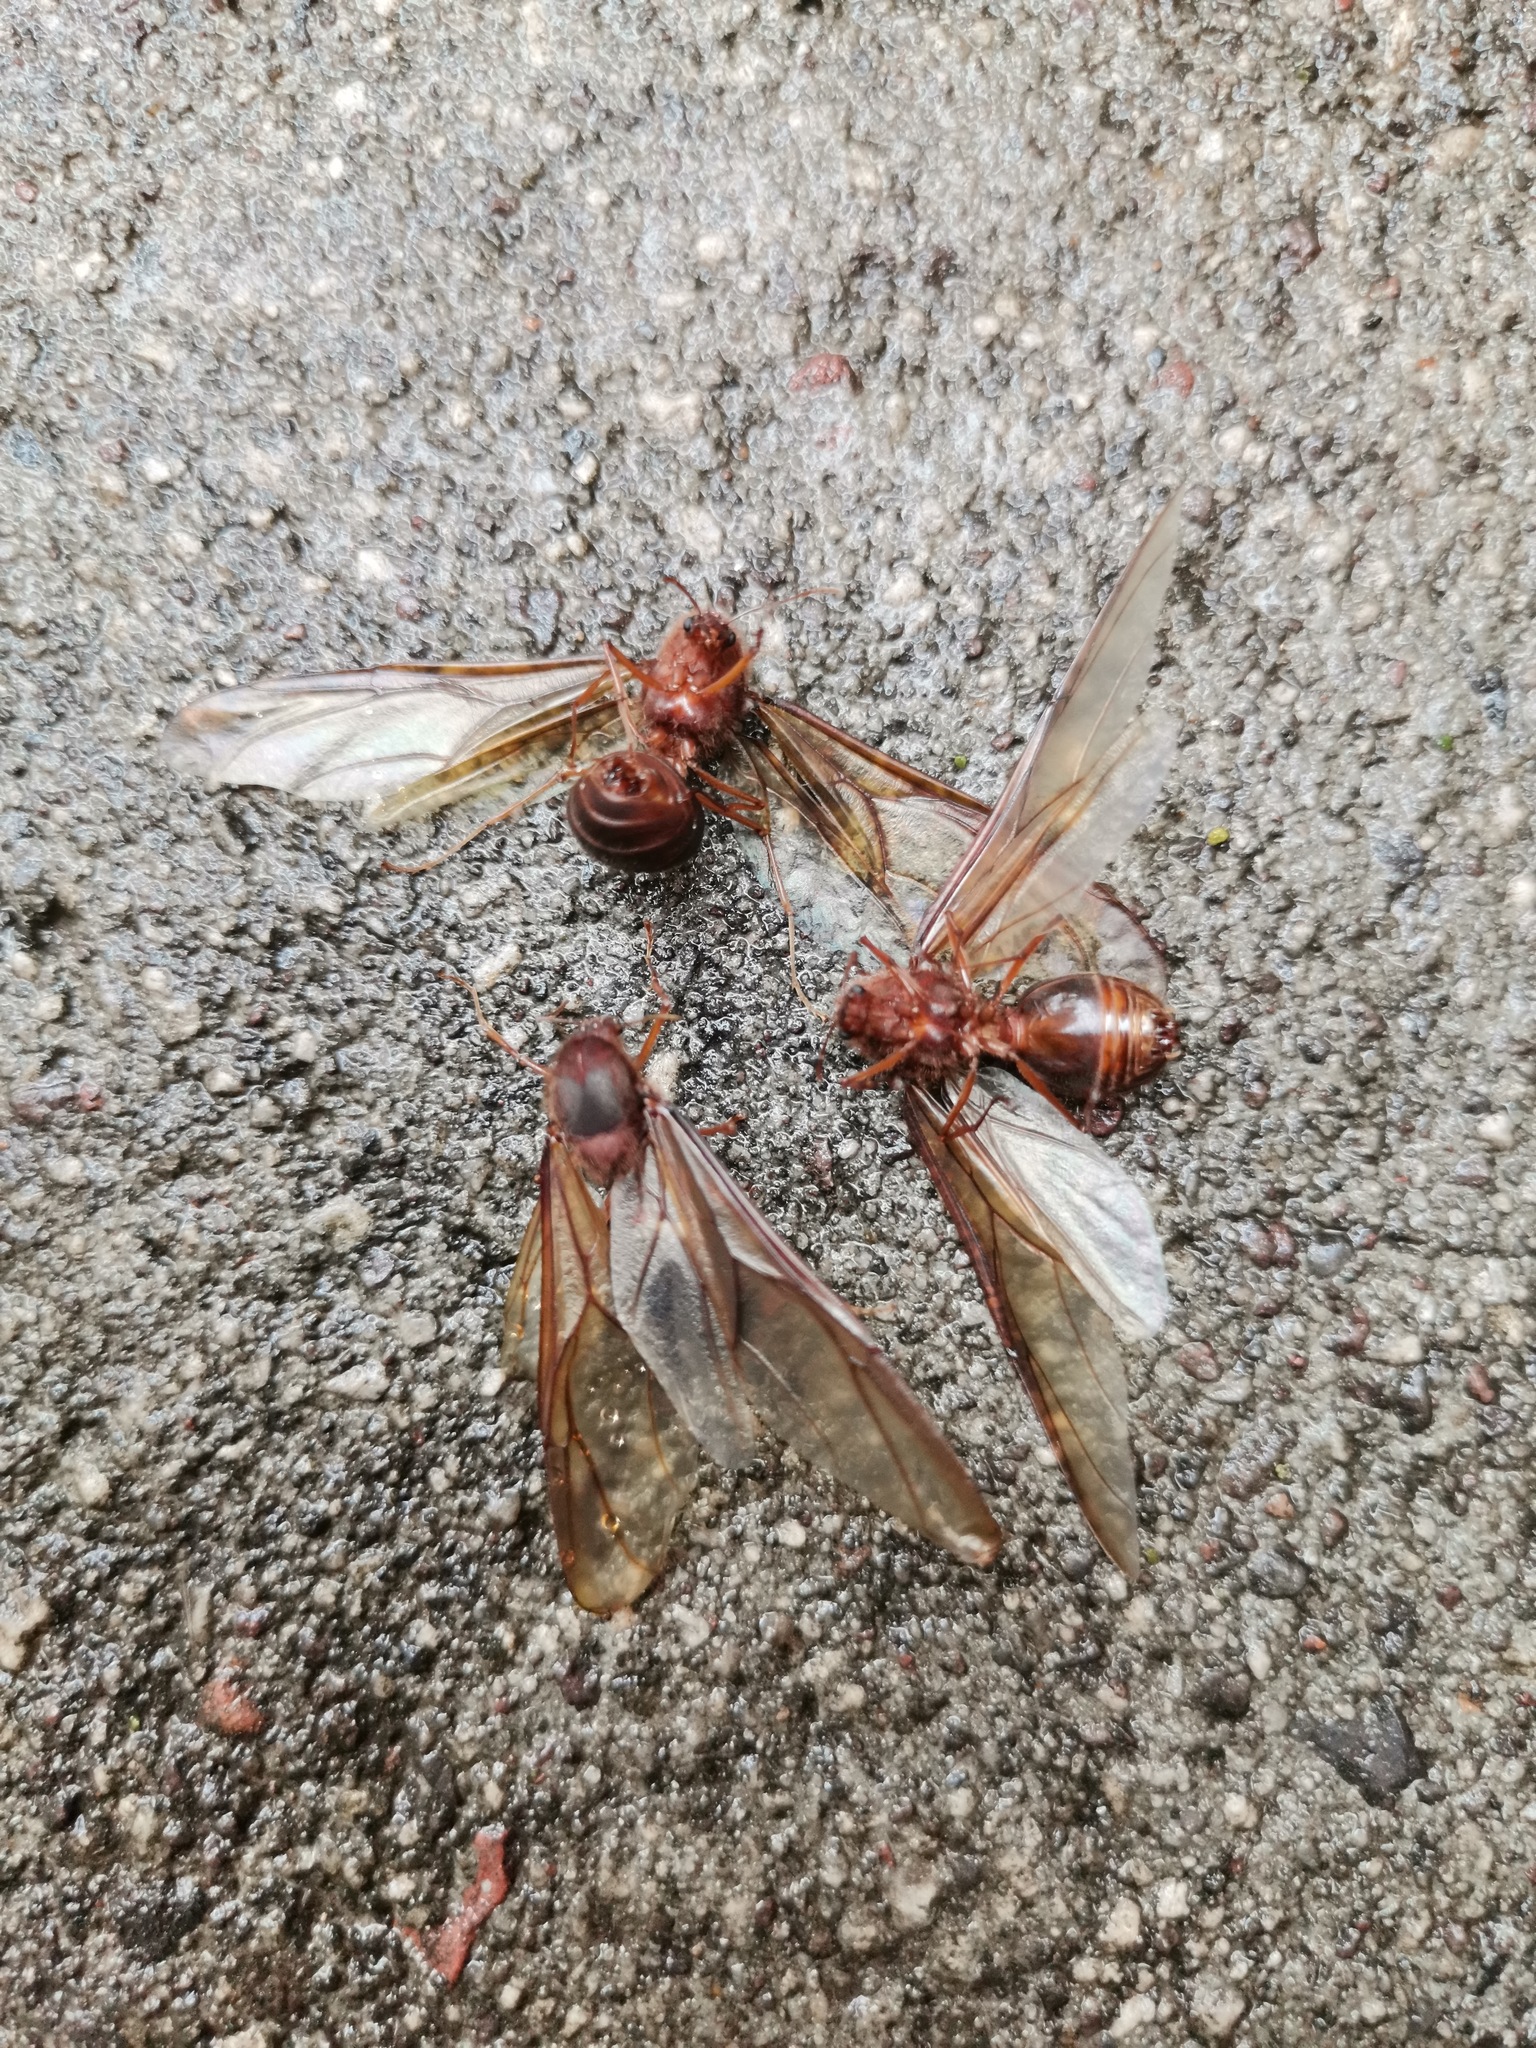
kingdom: Animalia
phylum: Arthropoda
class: Insecta
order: Hymenoptera
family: Formicidae
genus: Atta
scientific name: Atta mexicana
